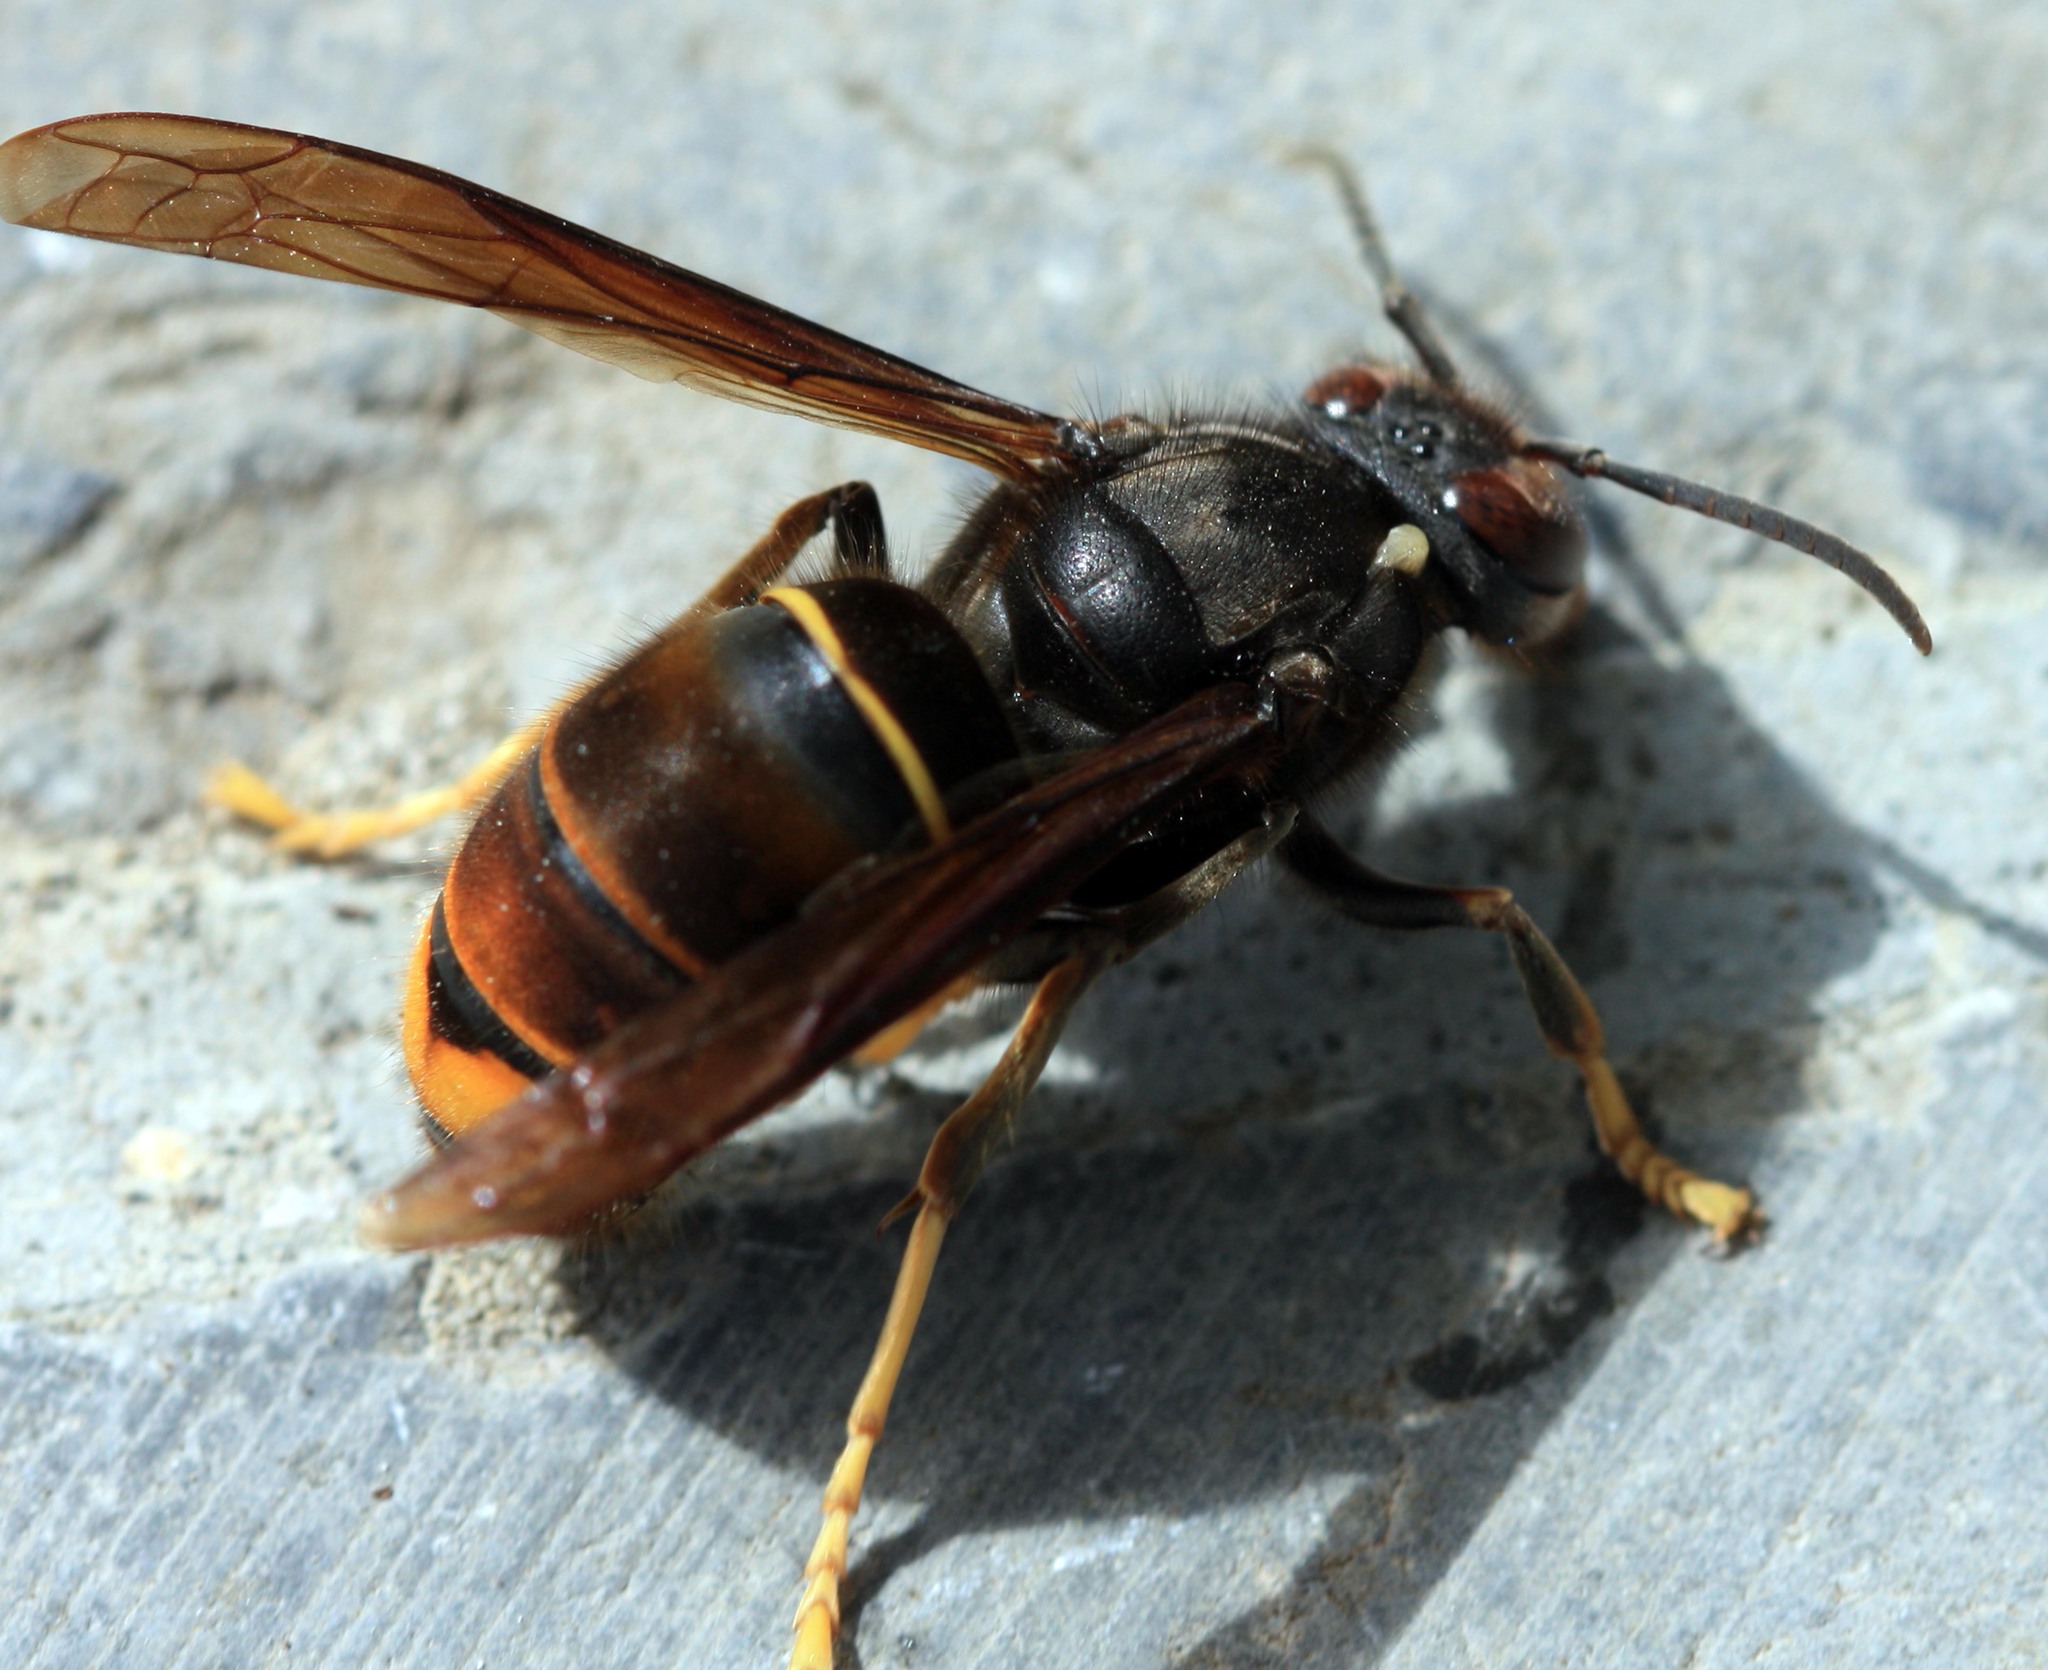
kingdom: Animalia
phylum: Arthropoda
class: Insecta
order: Hymenoptera
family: Vespidae
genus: Vespa
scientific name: Vespa velutina
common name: Asian hornet
